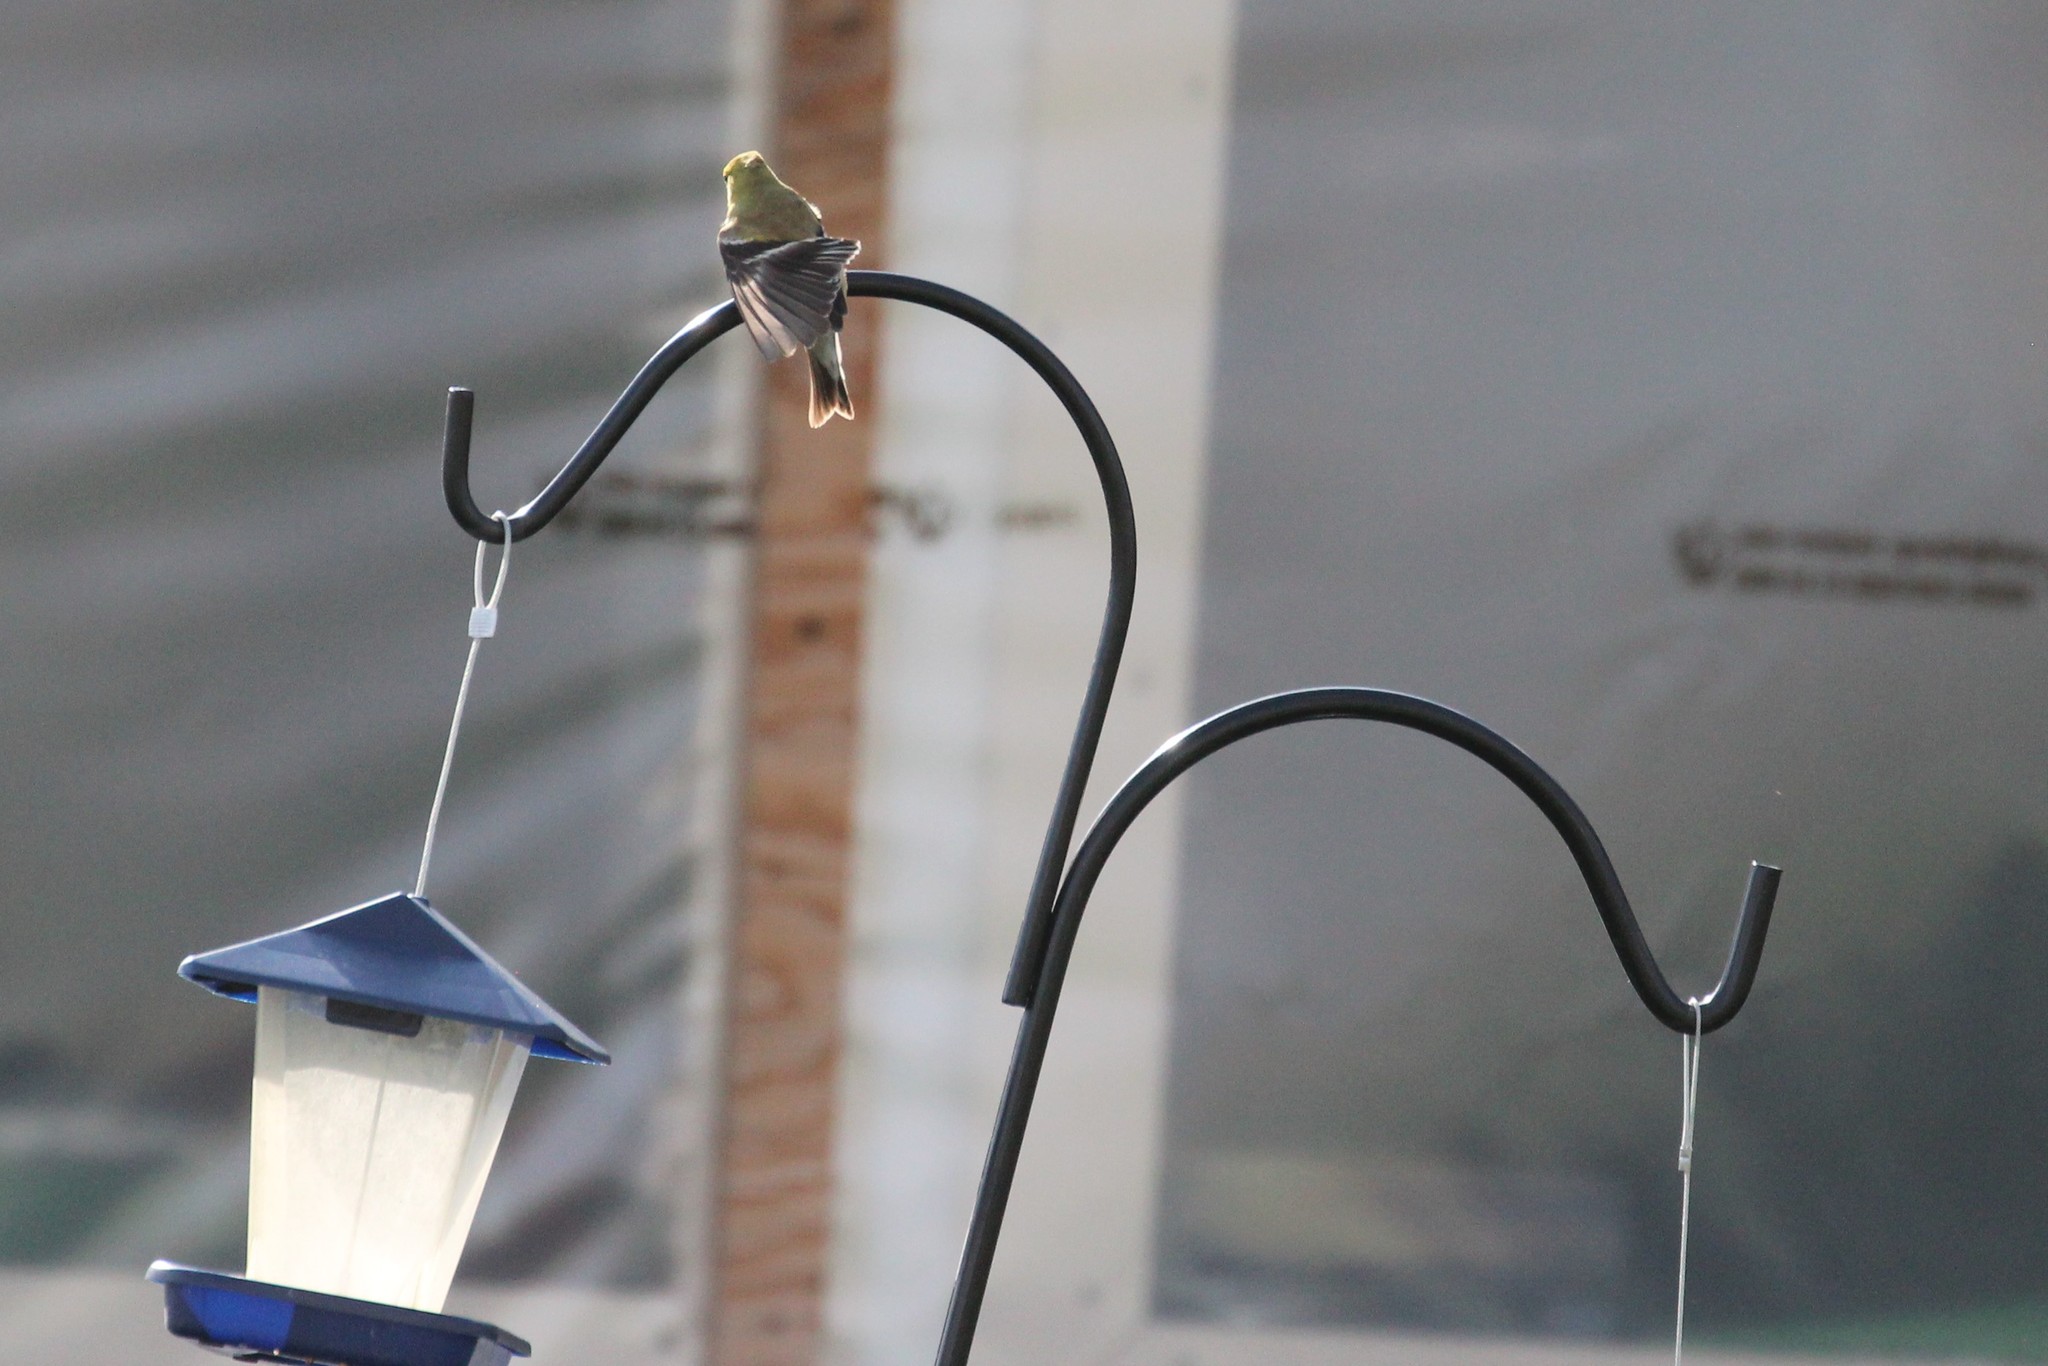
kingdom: Animalia
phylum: Chordata
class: Aves
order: Passeriformes
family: Fringillidae
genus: Spinus
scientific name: Spinus tristis
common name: American goldfinch
